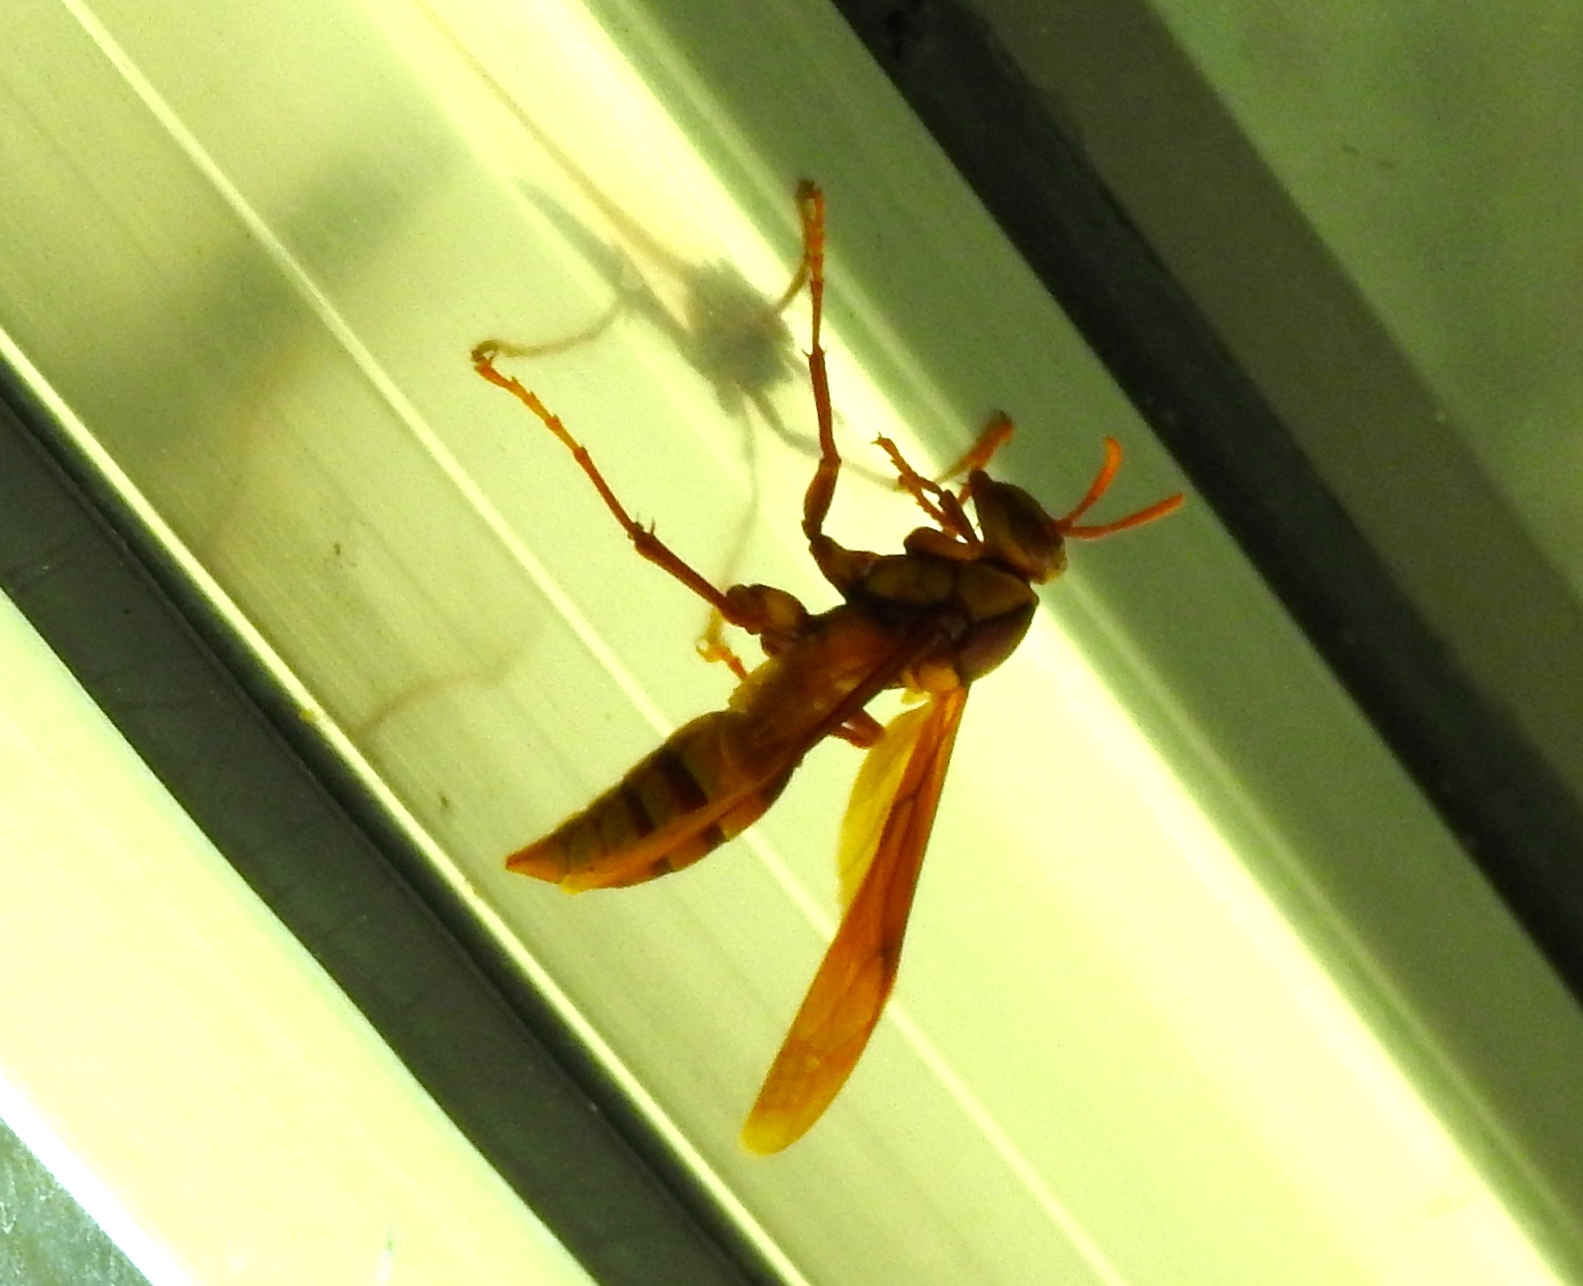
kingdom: Animalia
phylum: Arthropoda
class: Insecta
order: Hymenoptera
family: Eumenidae
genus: Polistes
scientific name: Polistes carnifex
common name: Paper wasp
